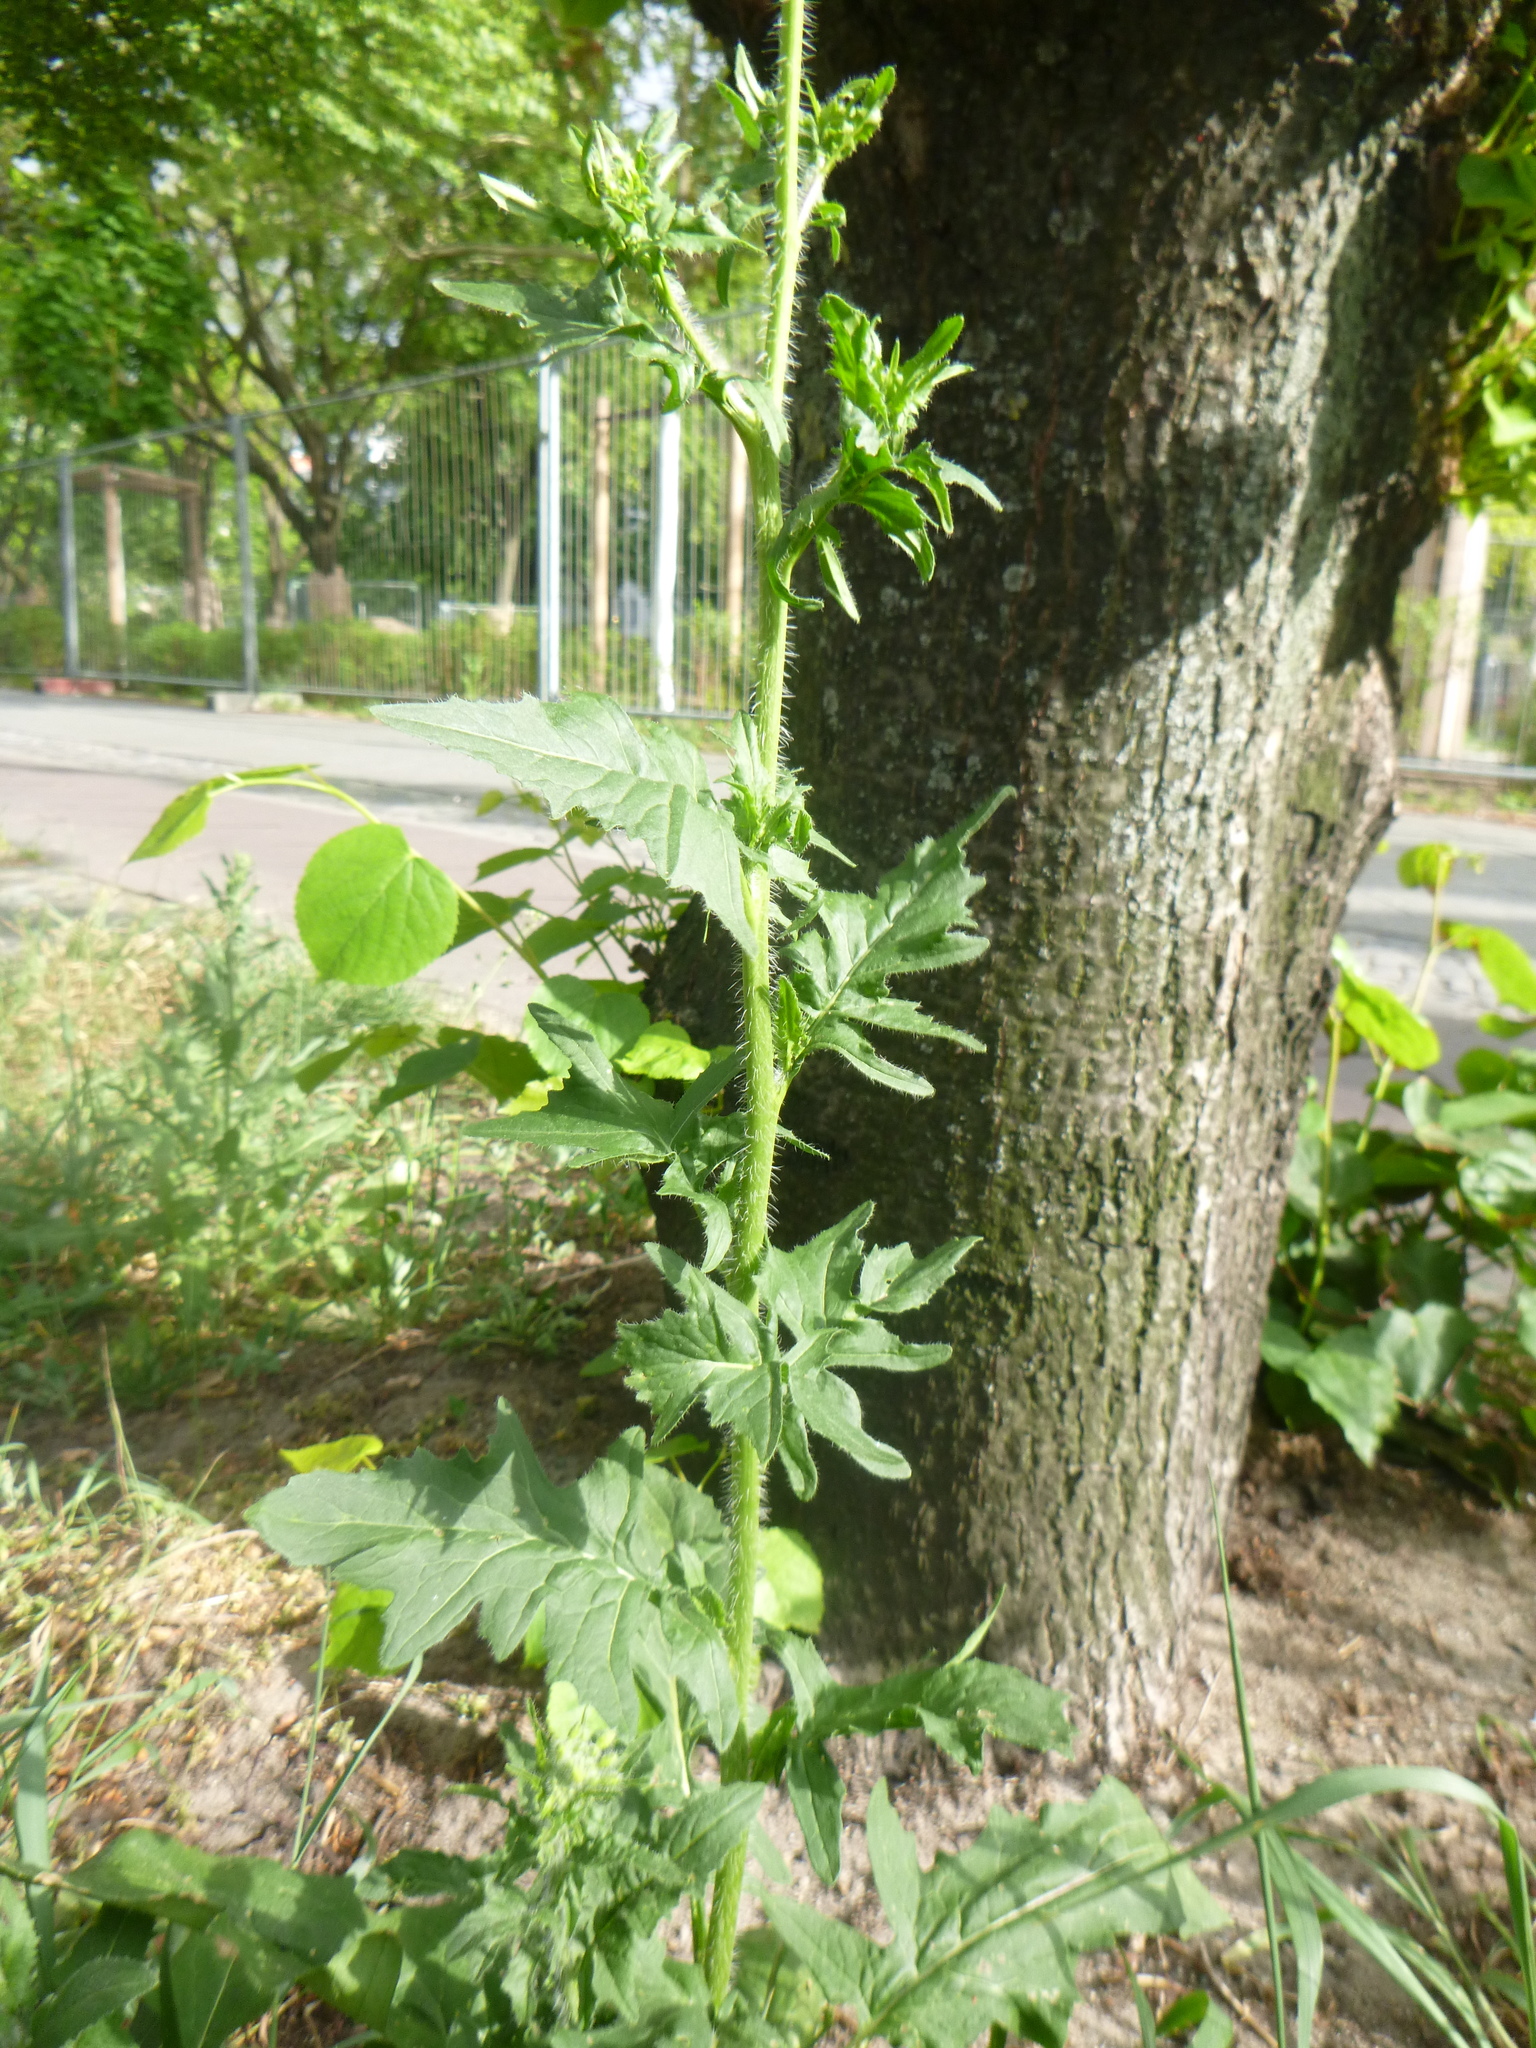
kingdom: Plantae
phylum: Tracheophyta
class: Magnoliopsida
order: Brassicales
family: Brassicaceae
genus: Sisymbrium
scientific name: Sisymbrium loeselii
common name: False london-rocket
